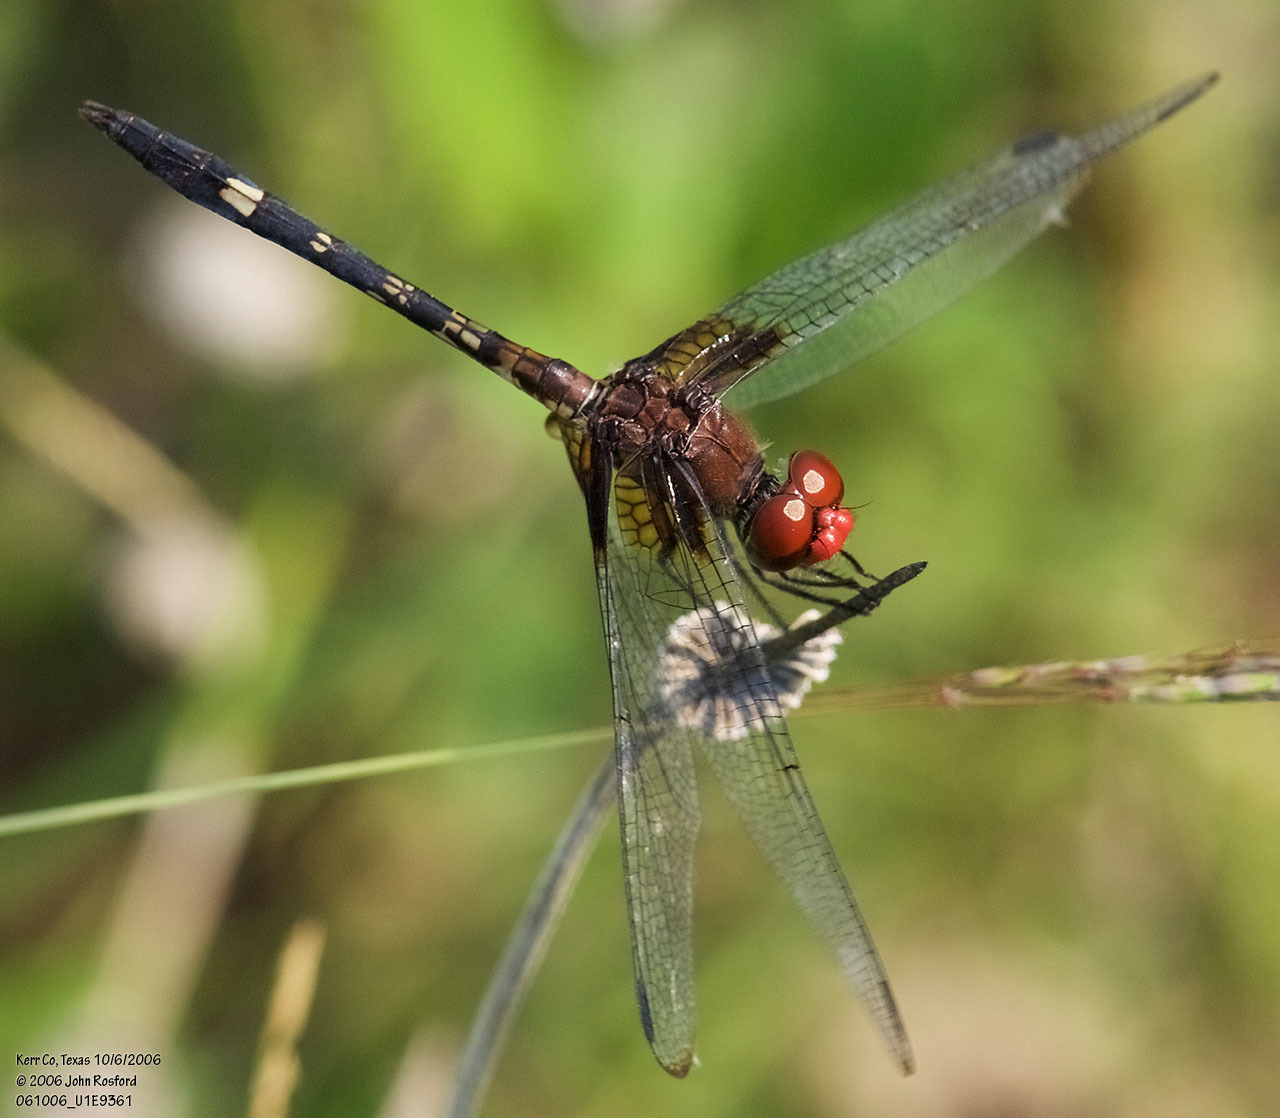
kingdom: Animalia
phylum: Arthropoda
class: Insecta
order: Odonata
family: Libellulidae
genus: Dythemis
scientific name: Dythemis fugax
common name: Checkered setwing
